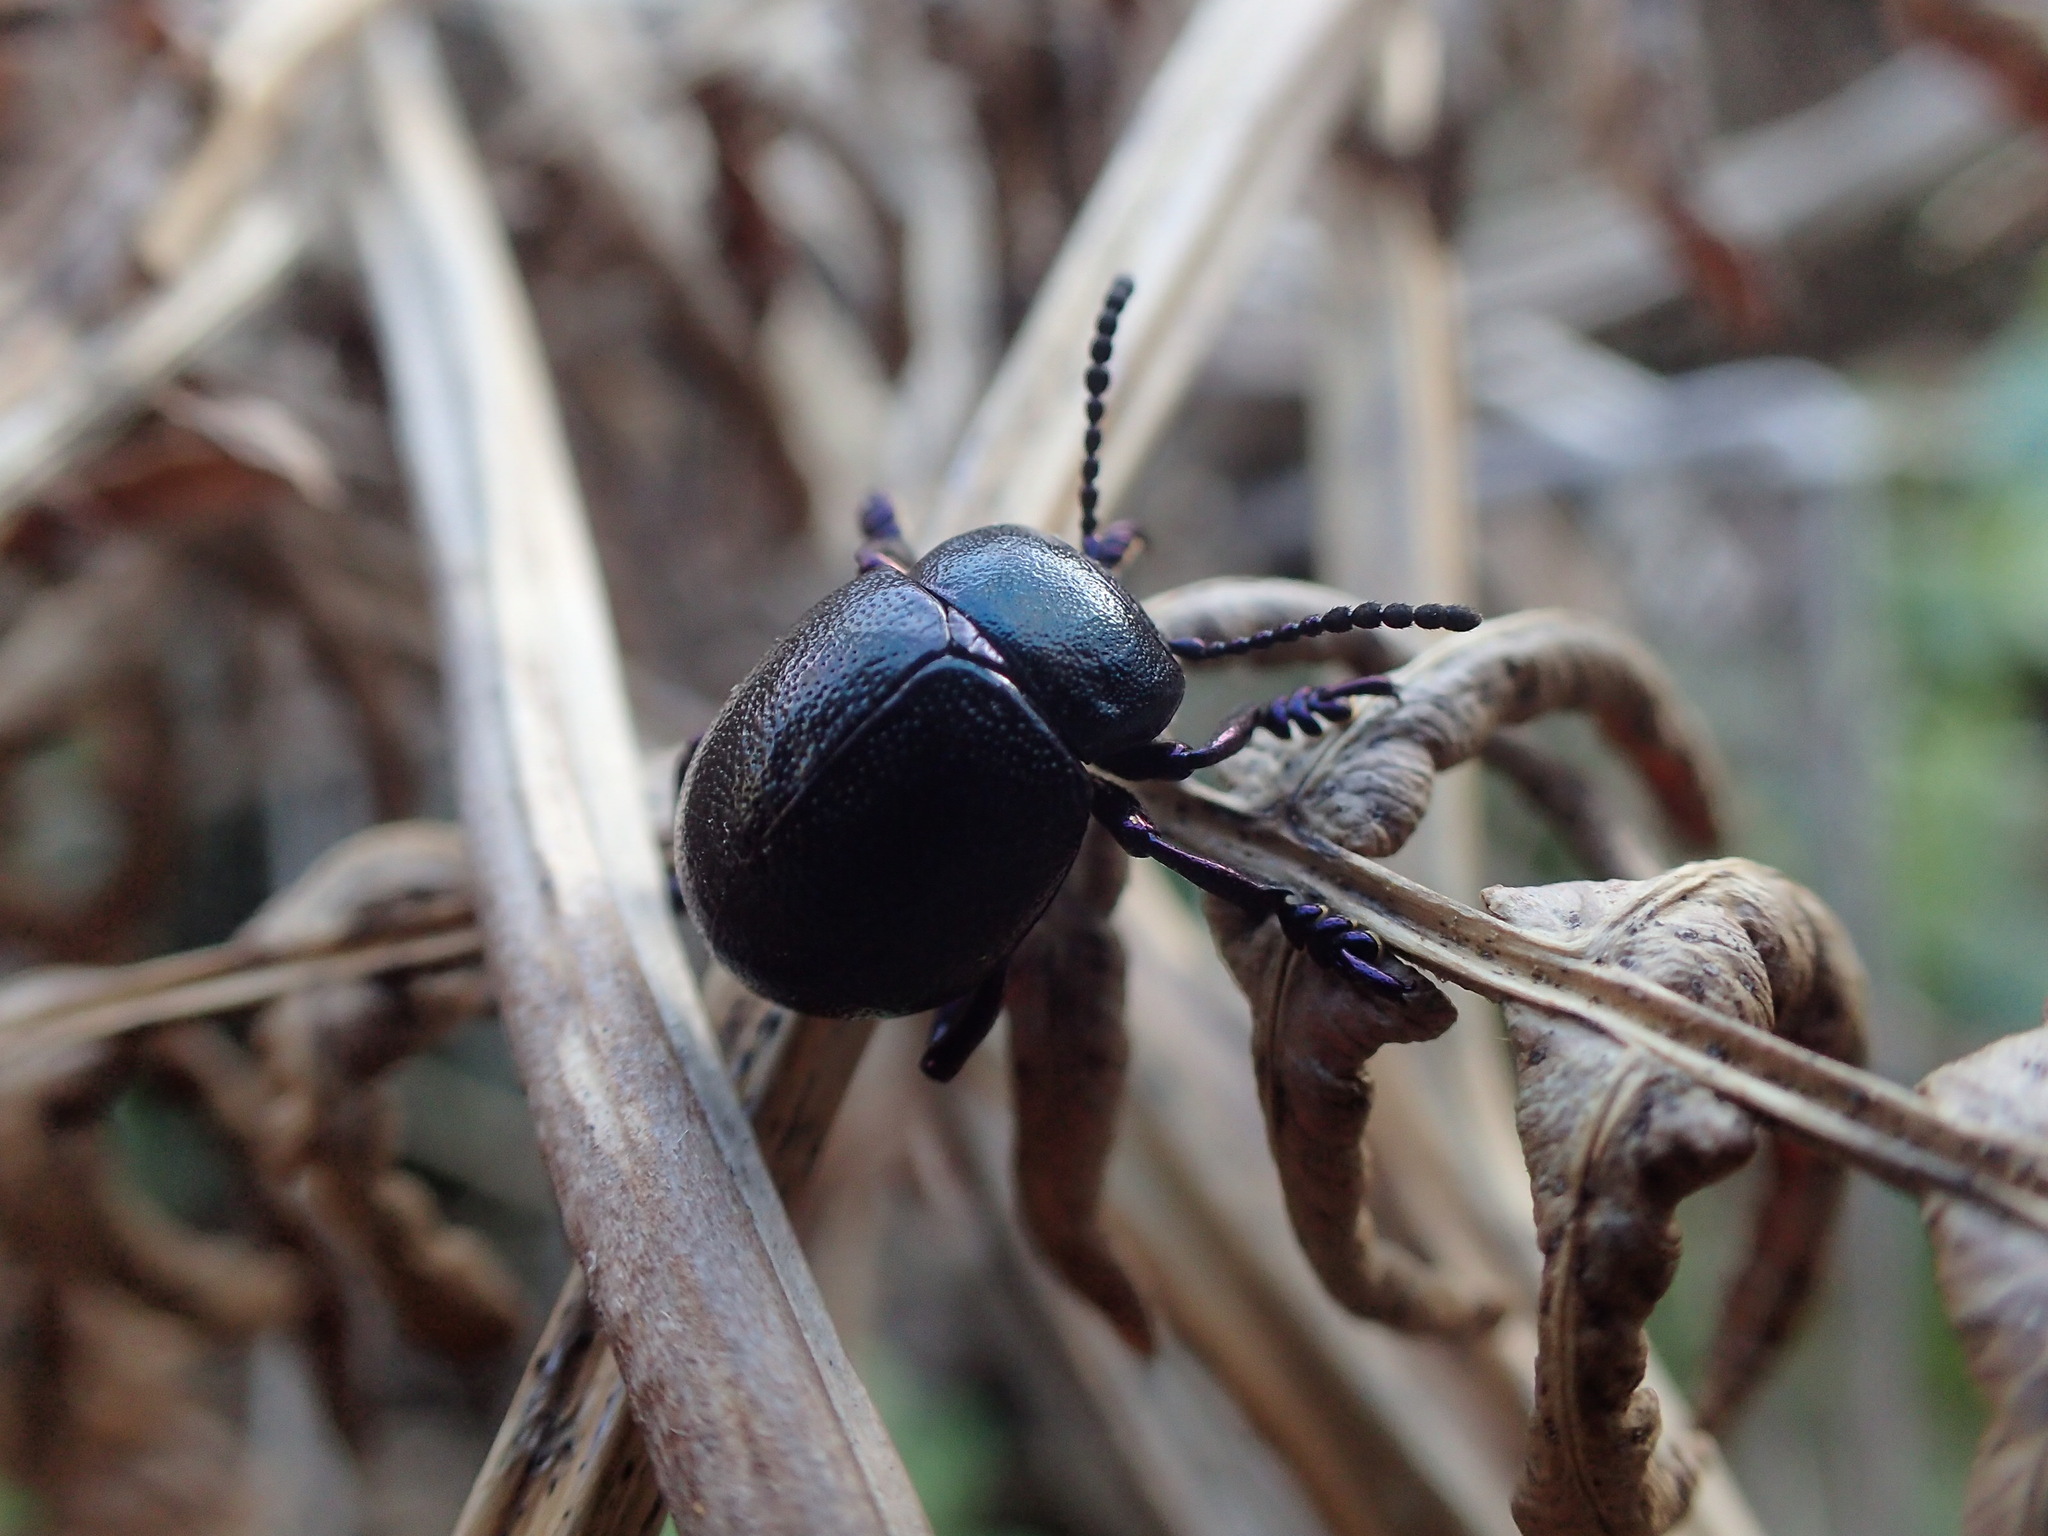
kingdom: Animalia
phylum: Arthropoda
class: Insecta
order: Coleoptera
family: Chrysomelidae
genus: Timarcha
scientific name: Timarcha goettingensis
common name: Small bloody-nosed beetle
